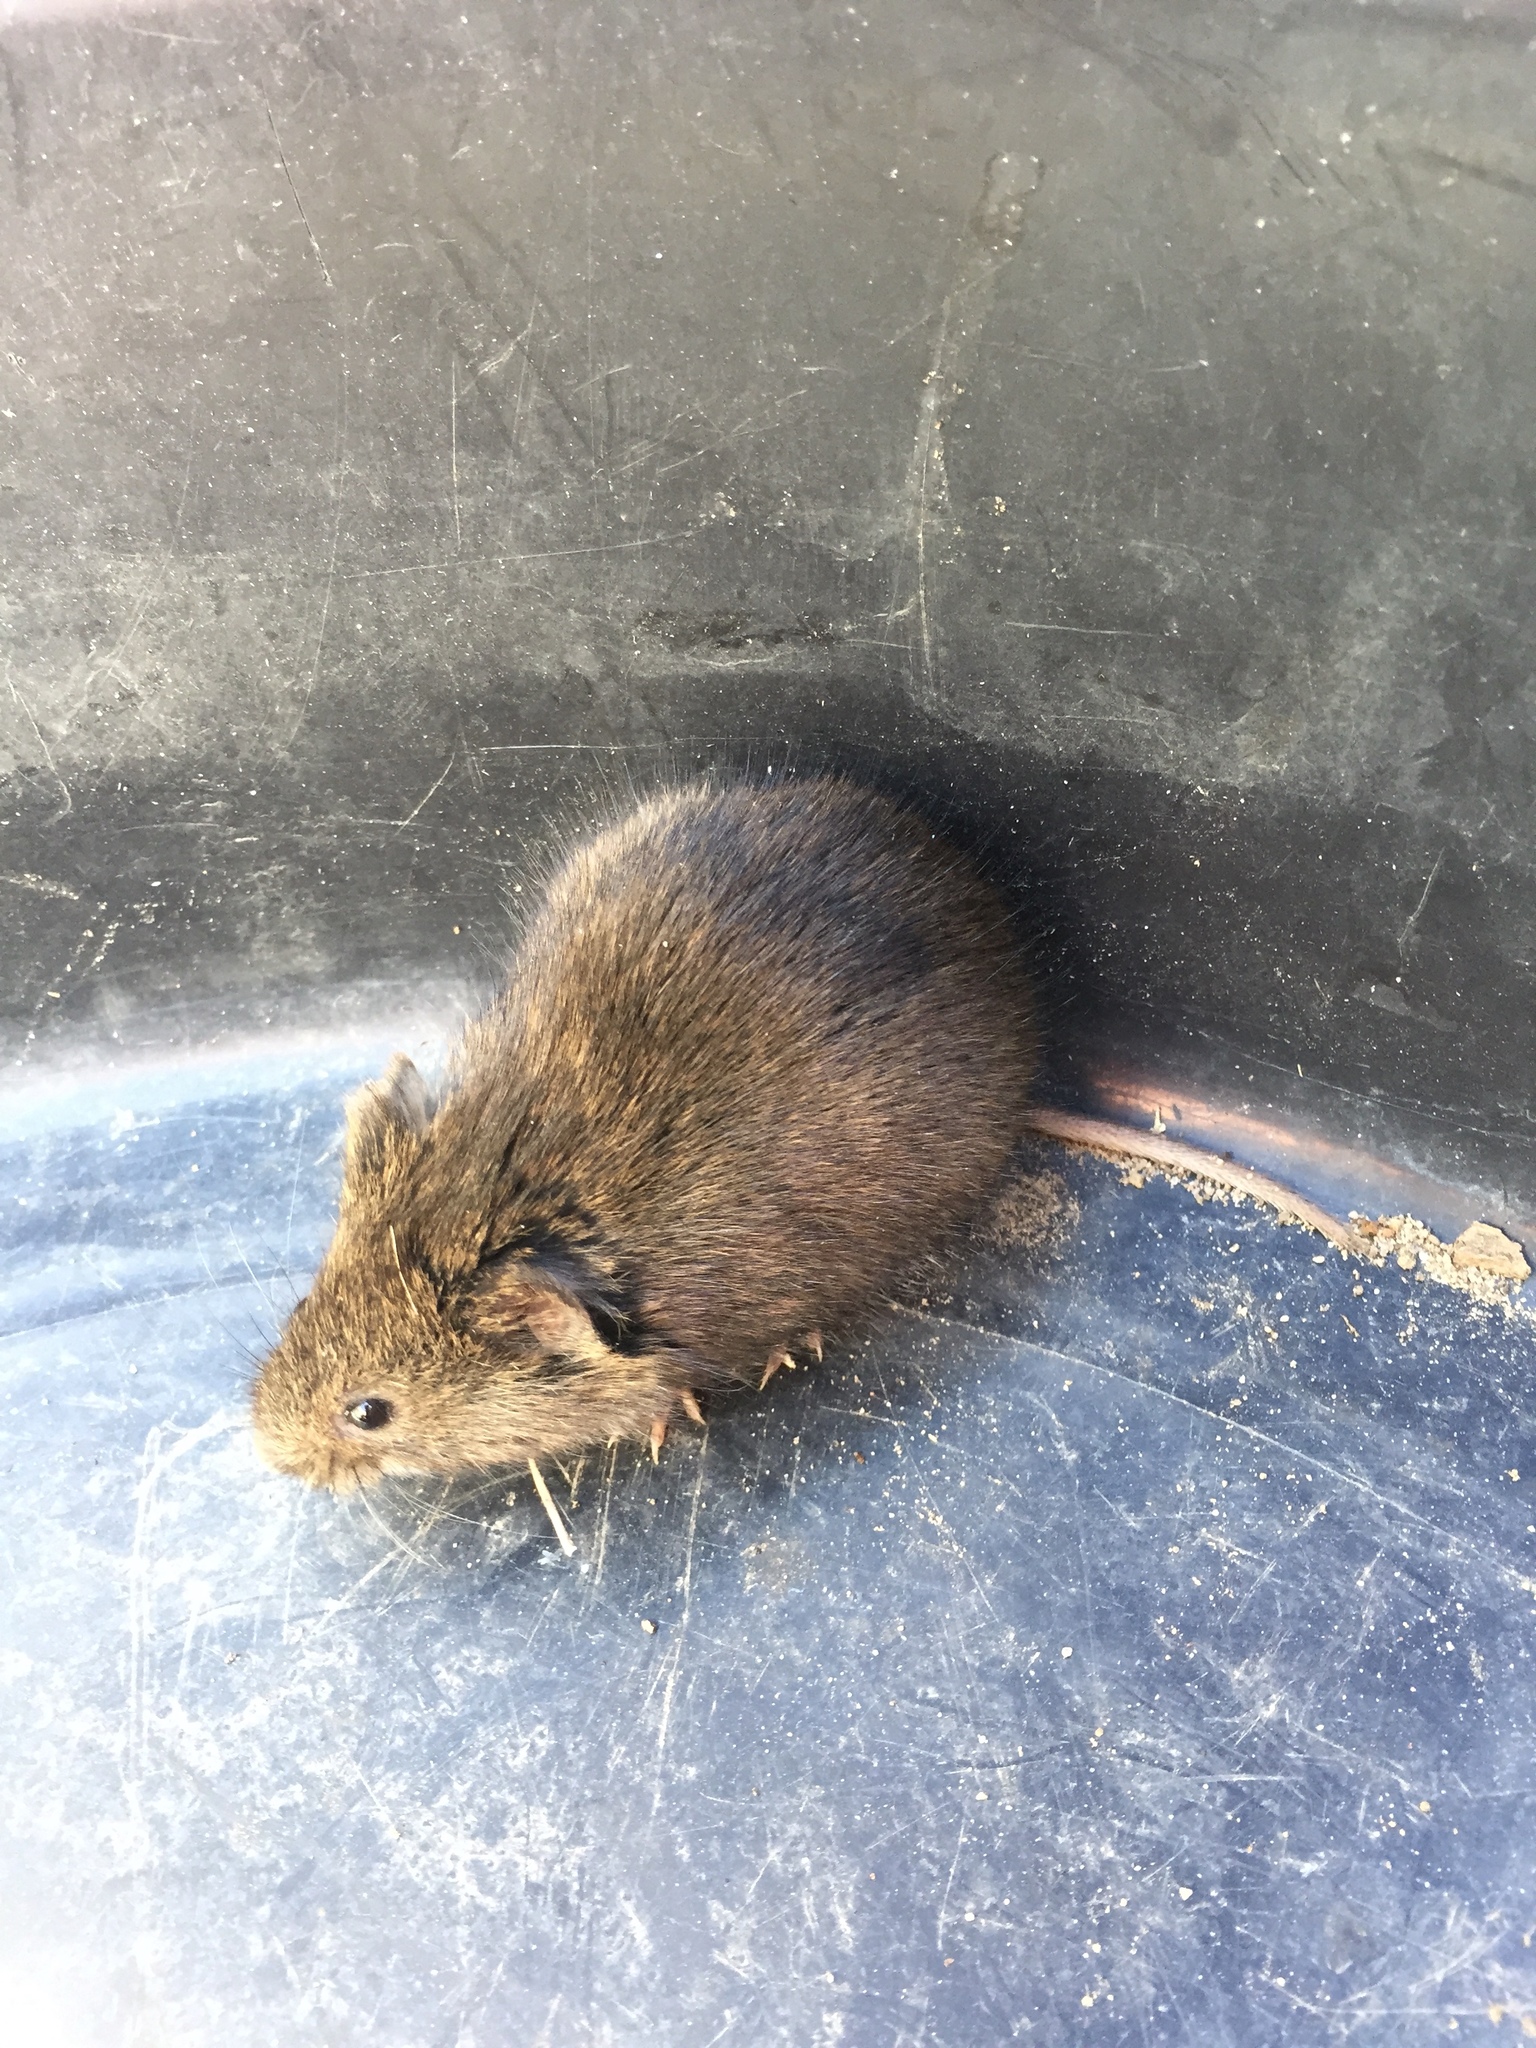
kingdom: Animalia
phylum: Chordata
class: Mammalia
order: Rodentia
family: Cricetidae
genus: Microtus
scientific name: Microtus pennsylvanicus
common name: Meadow vole
